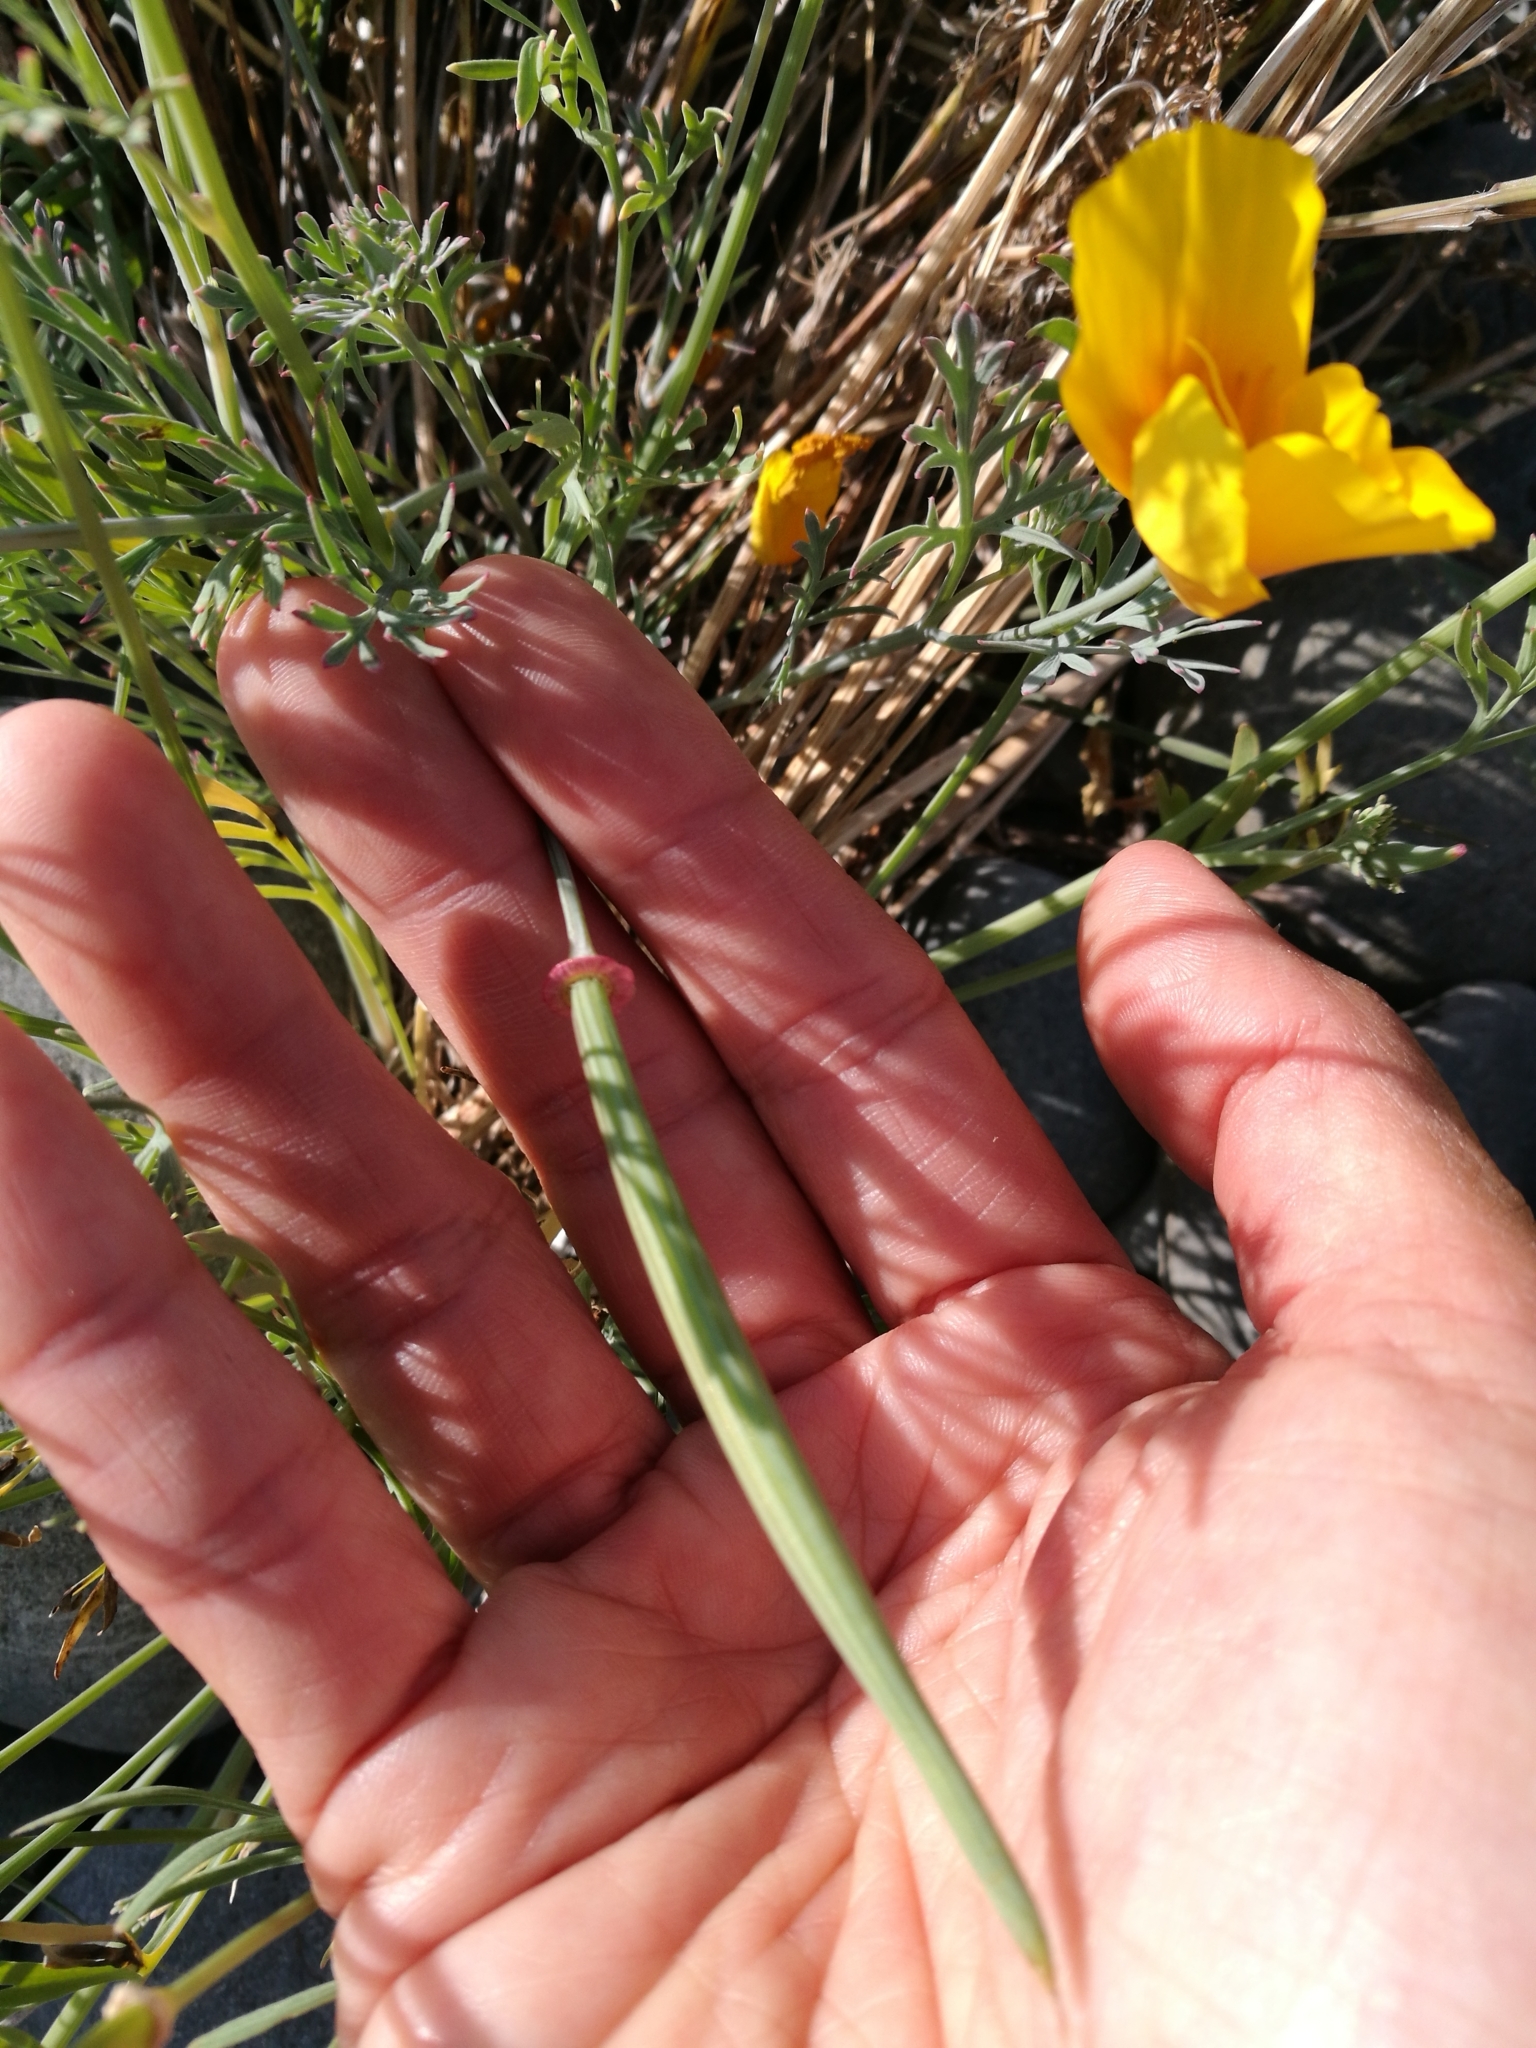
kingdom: Plantae
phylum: Tracheophyta
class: Magnoliopsida
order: Ranunculales
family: Papaveraceae
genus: Eschscholzia
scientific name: Eschscholzia californica
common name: California poppy
